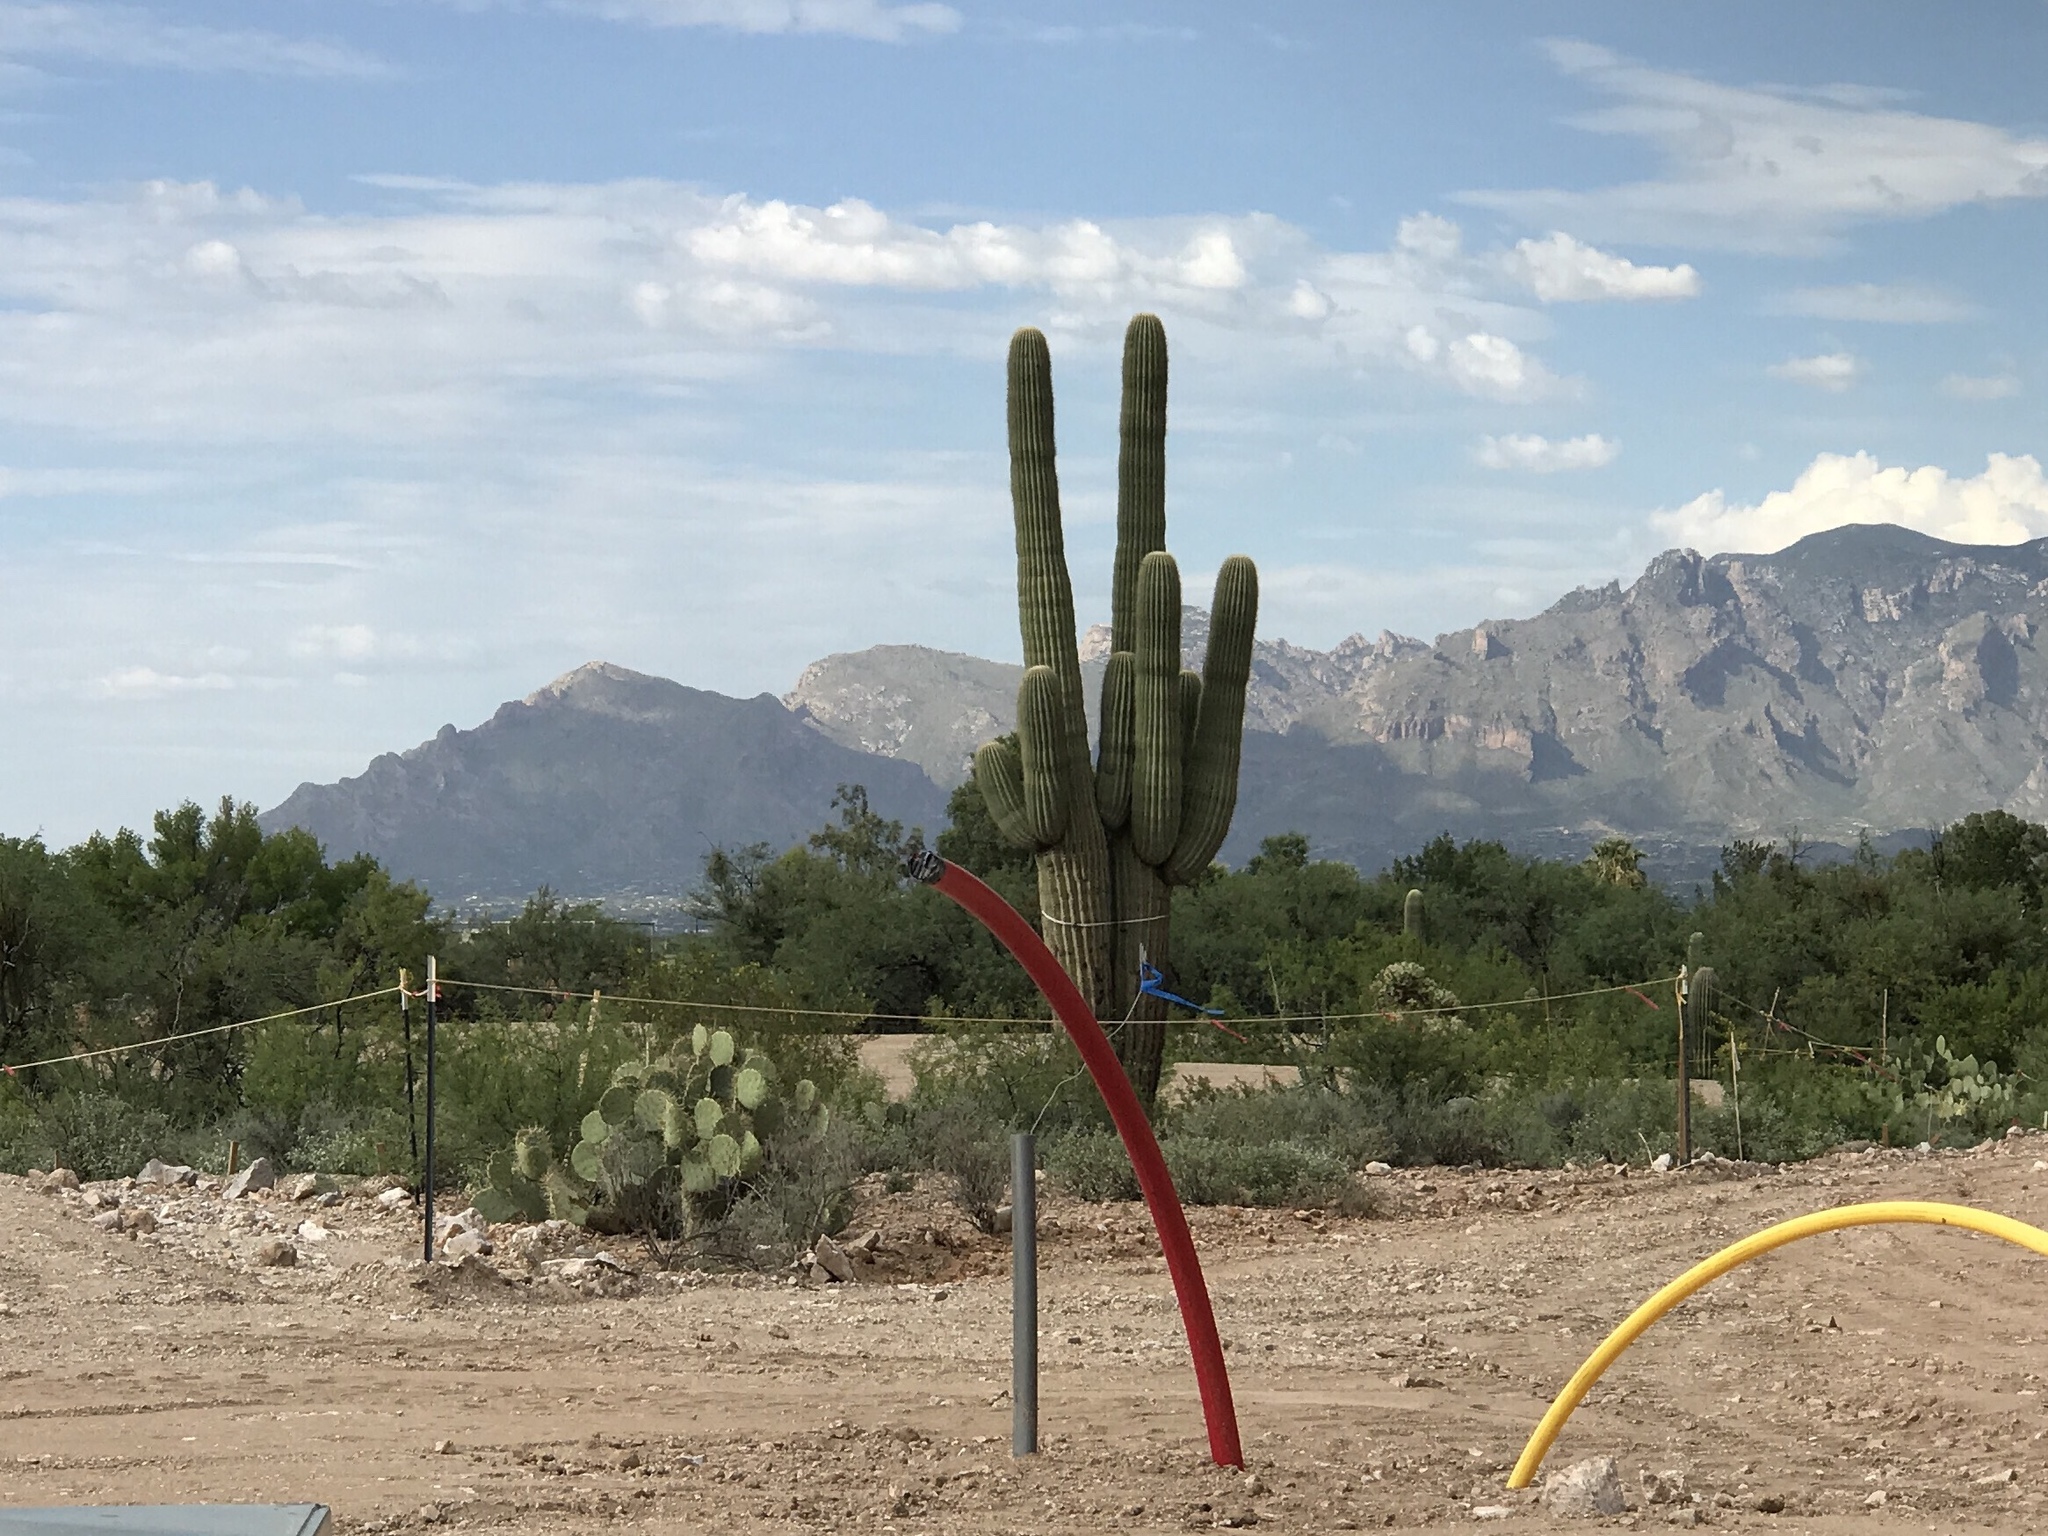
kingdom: Plantae
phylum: Tracheophyta
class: Magnoliopsida
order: Caryophyllales
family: Cactaceae
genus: Carnegiea
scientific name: Carnegiea gigantea
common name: Saguaro
